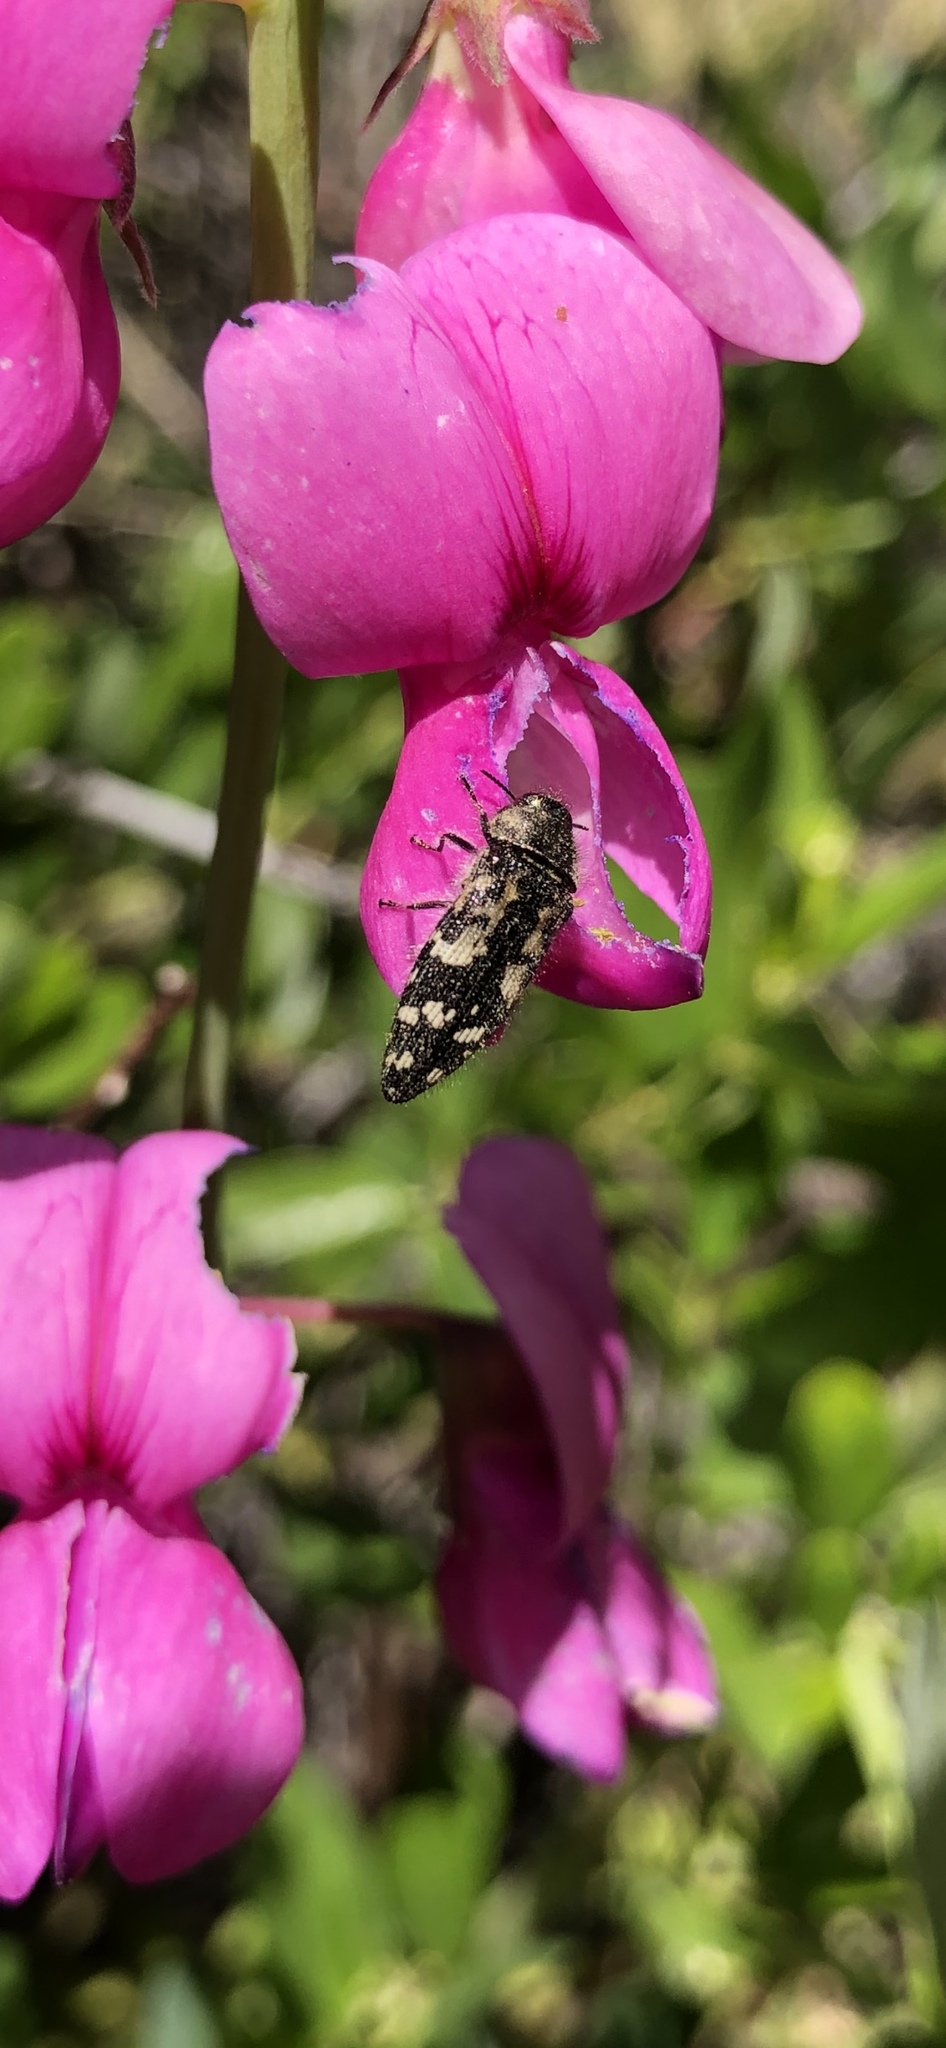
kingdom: Animalia
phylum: Arthropoda
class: Insecta
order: Coleoptera
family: Buprestidae
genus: Acmaeodera
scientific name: Acmaeodera hepburnii
